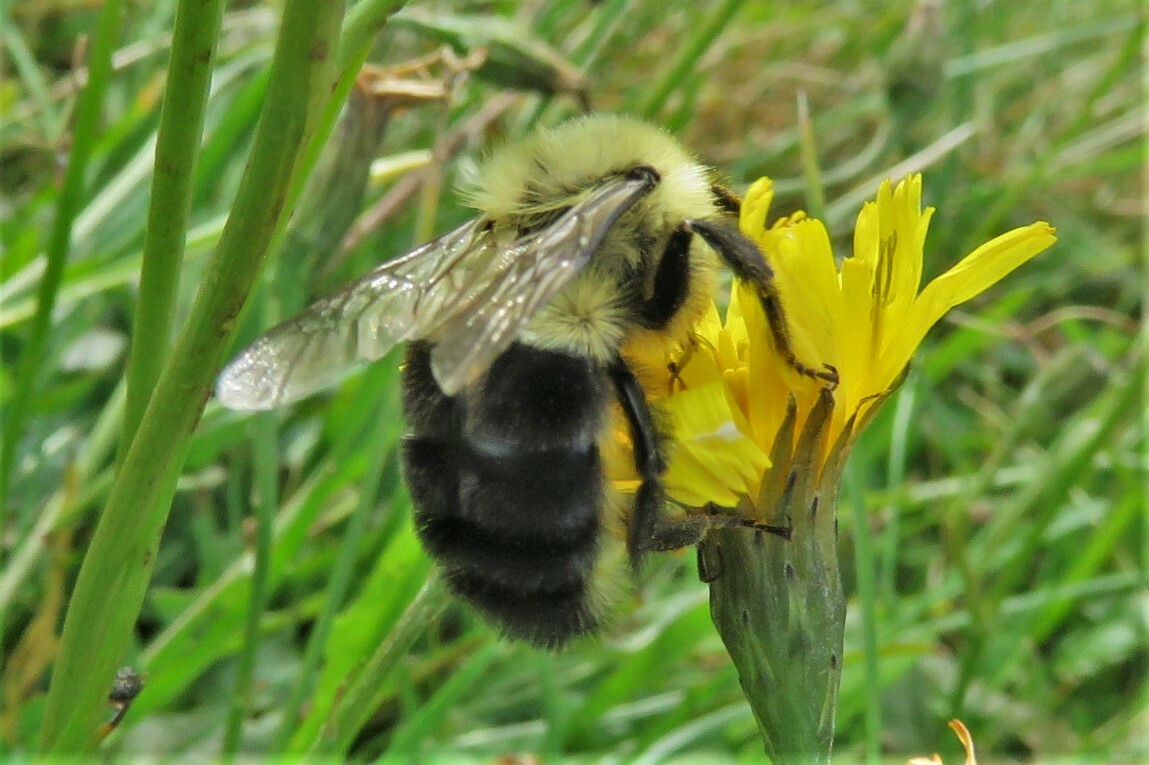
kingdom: Animalia
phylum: Arthropoda
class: Insecta
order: Hymenoptera
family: Apidae
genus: Bombus
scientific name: Bombus impatiens
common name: Common eastern bumble bee
